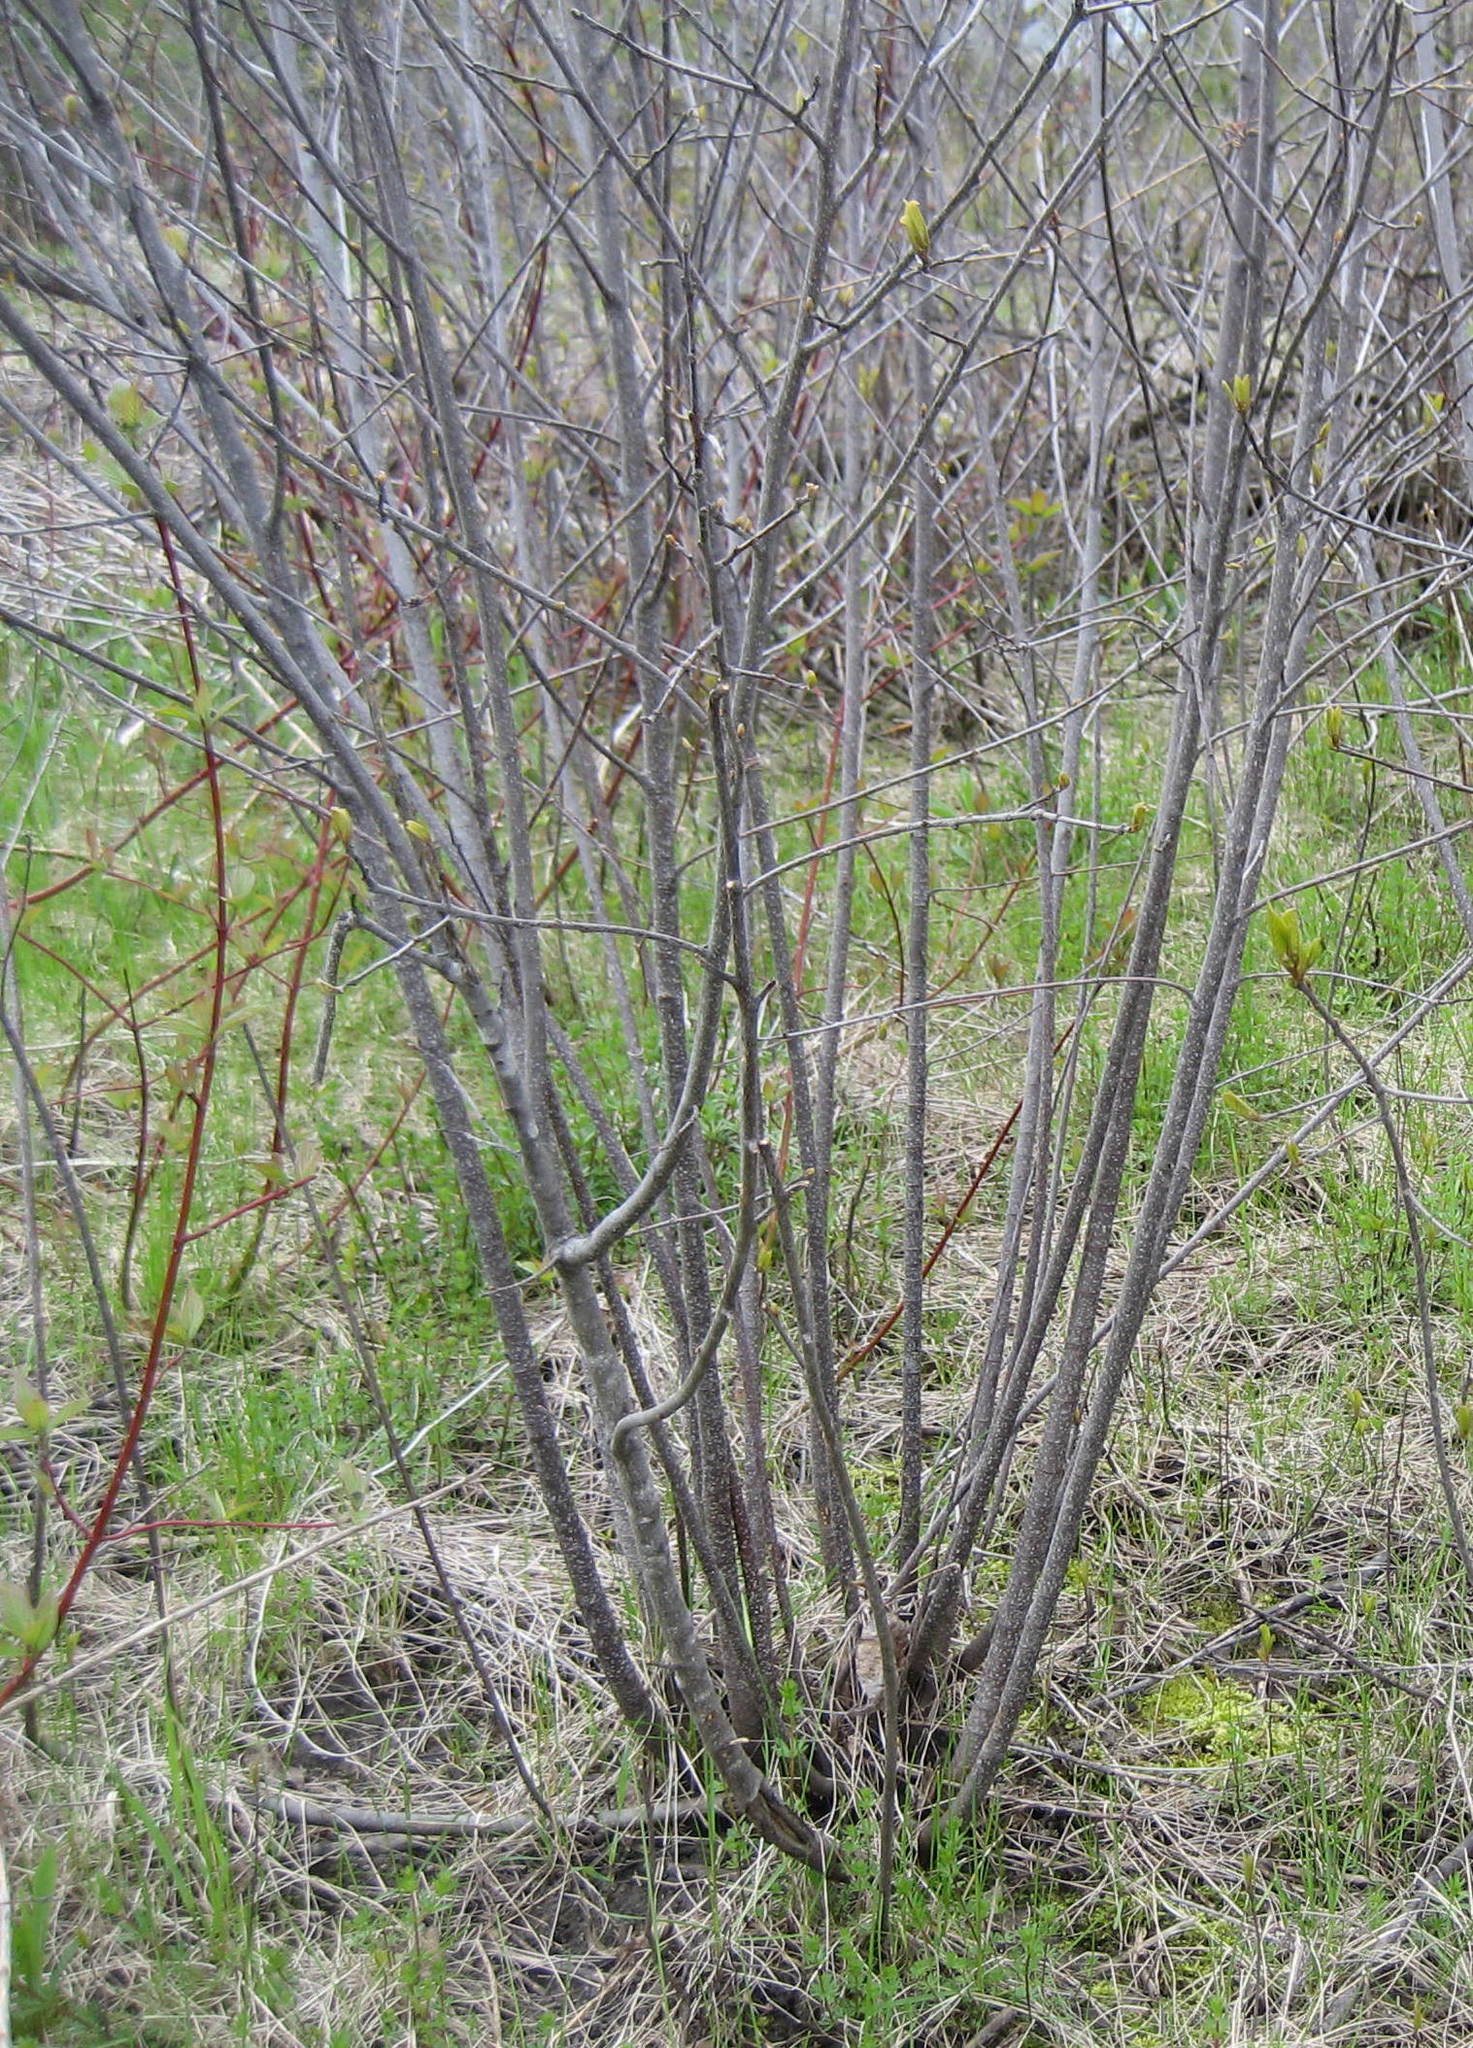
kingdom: Plantae
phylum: Tracheophyta
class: Magnoliopsida
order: Rosales
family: Rhamnaceae
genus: Frangula
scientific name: Frangula alnus
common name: Alder buckthorn
